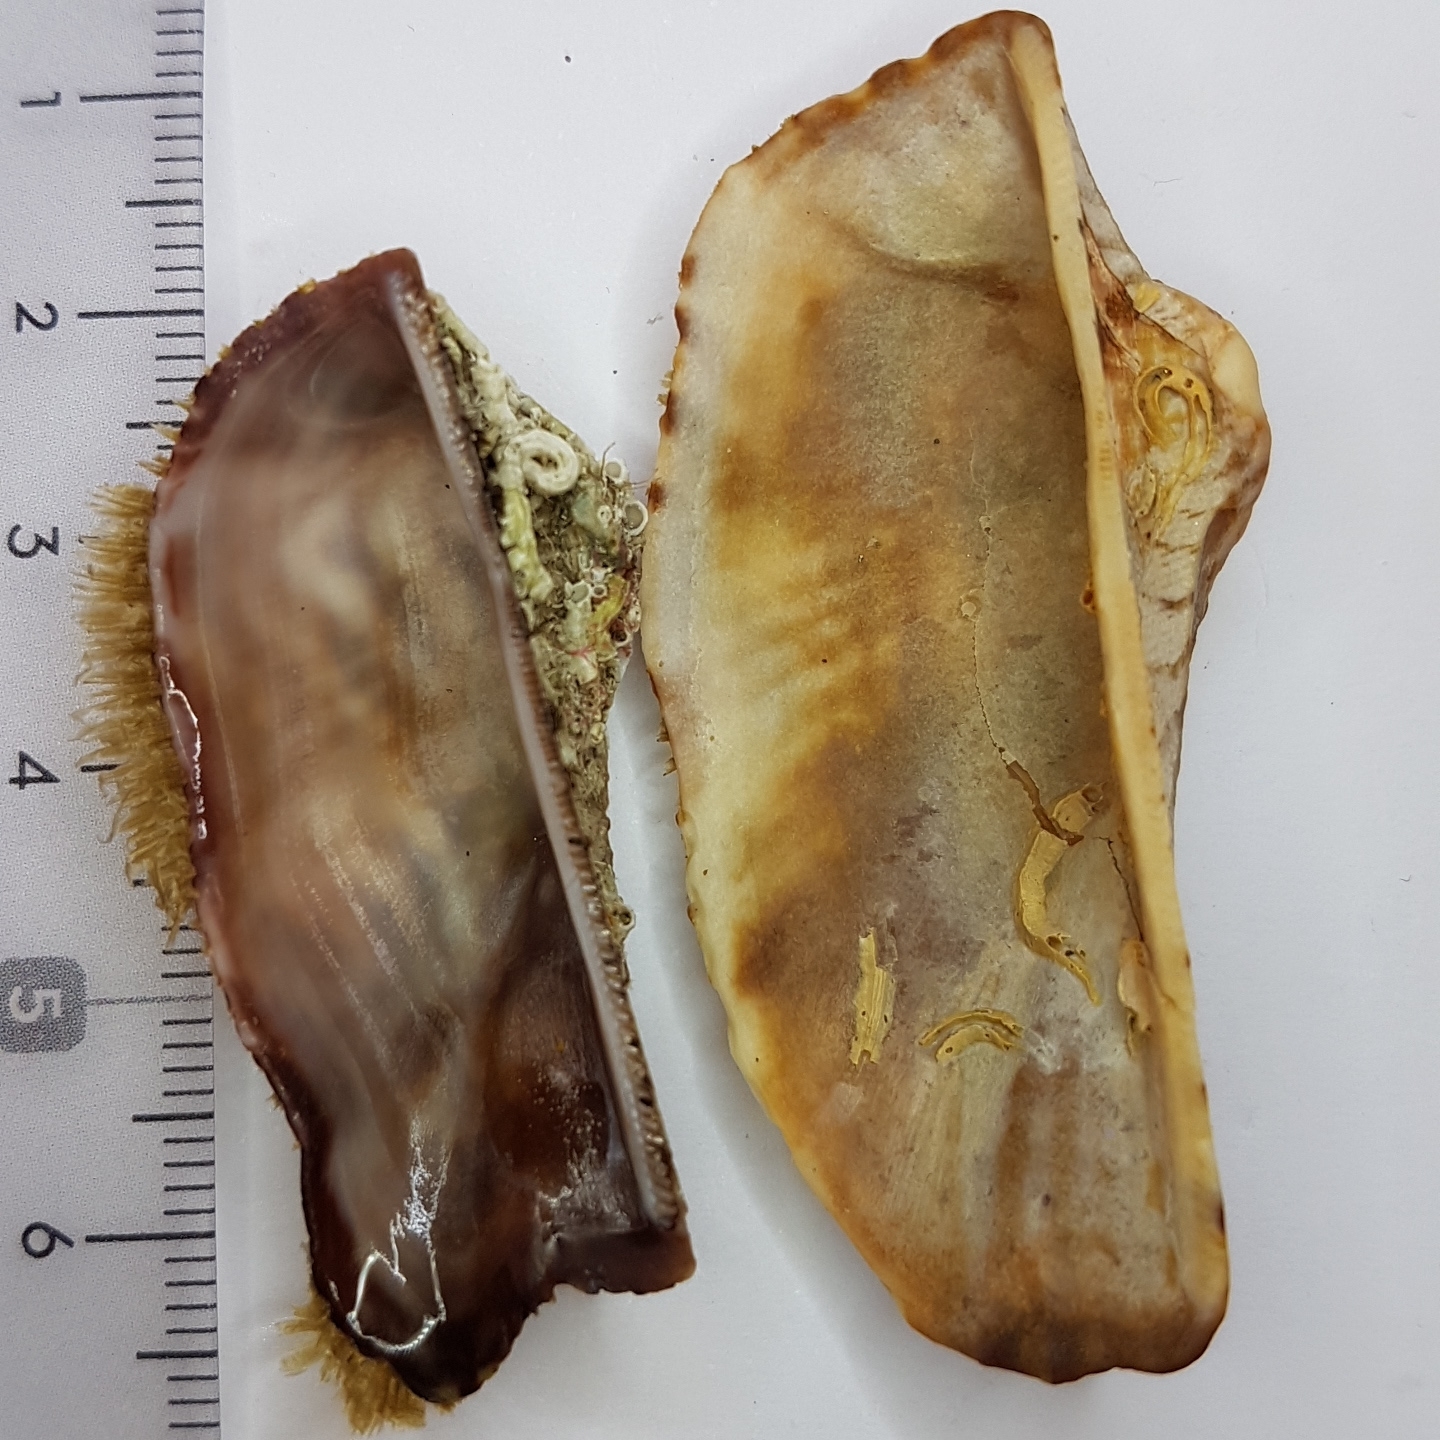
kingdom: Animalia
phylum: Mollusca
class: Bivalvia
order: Arcida
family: Arcidae
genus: Arca
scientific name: Arca noae
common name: Noah's arch
